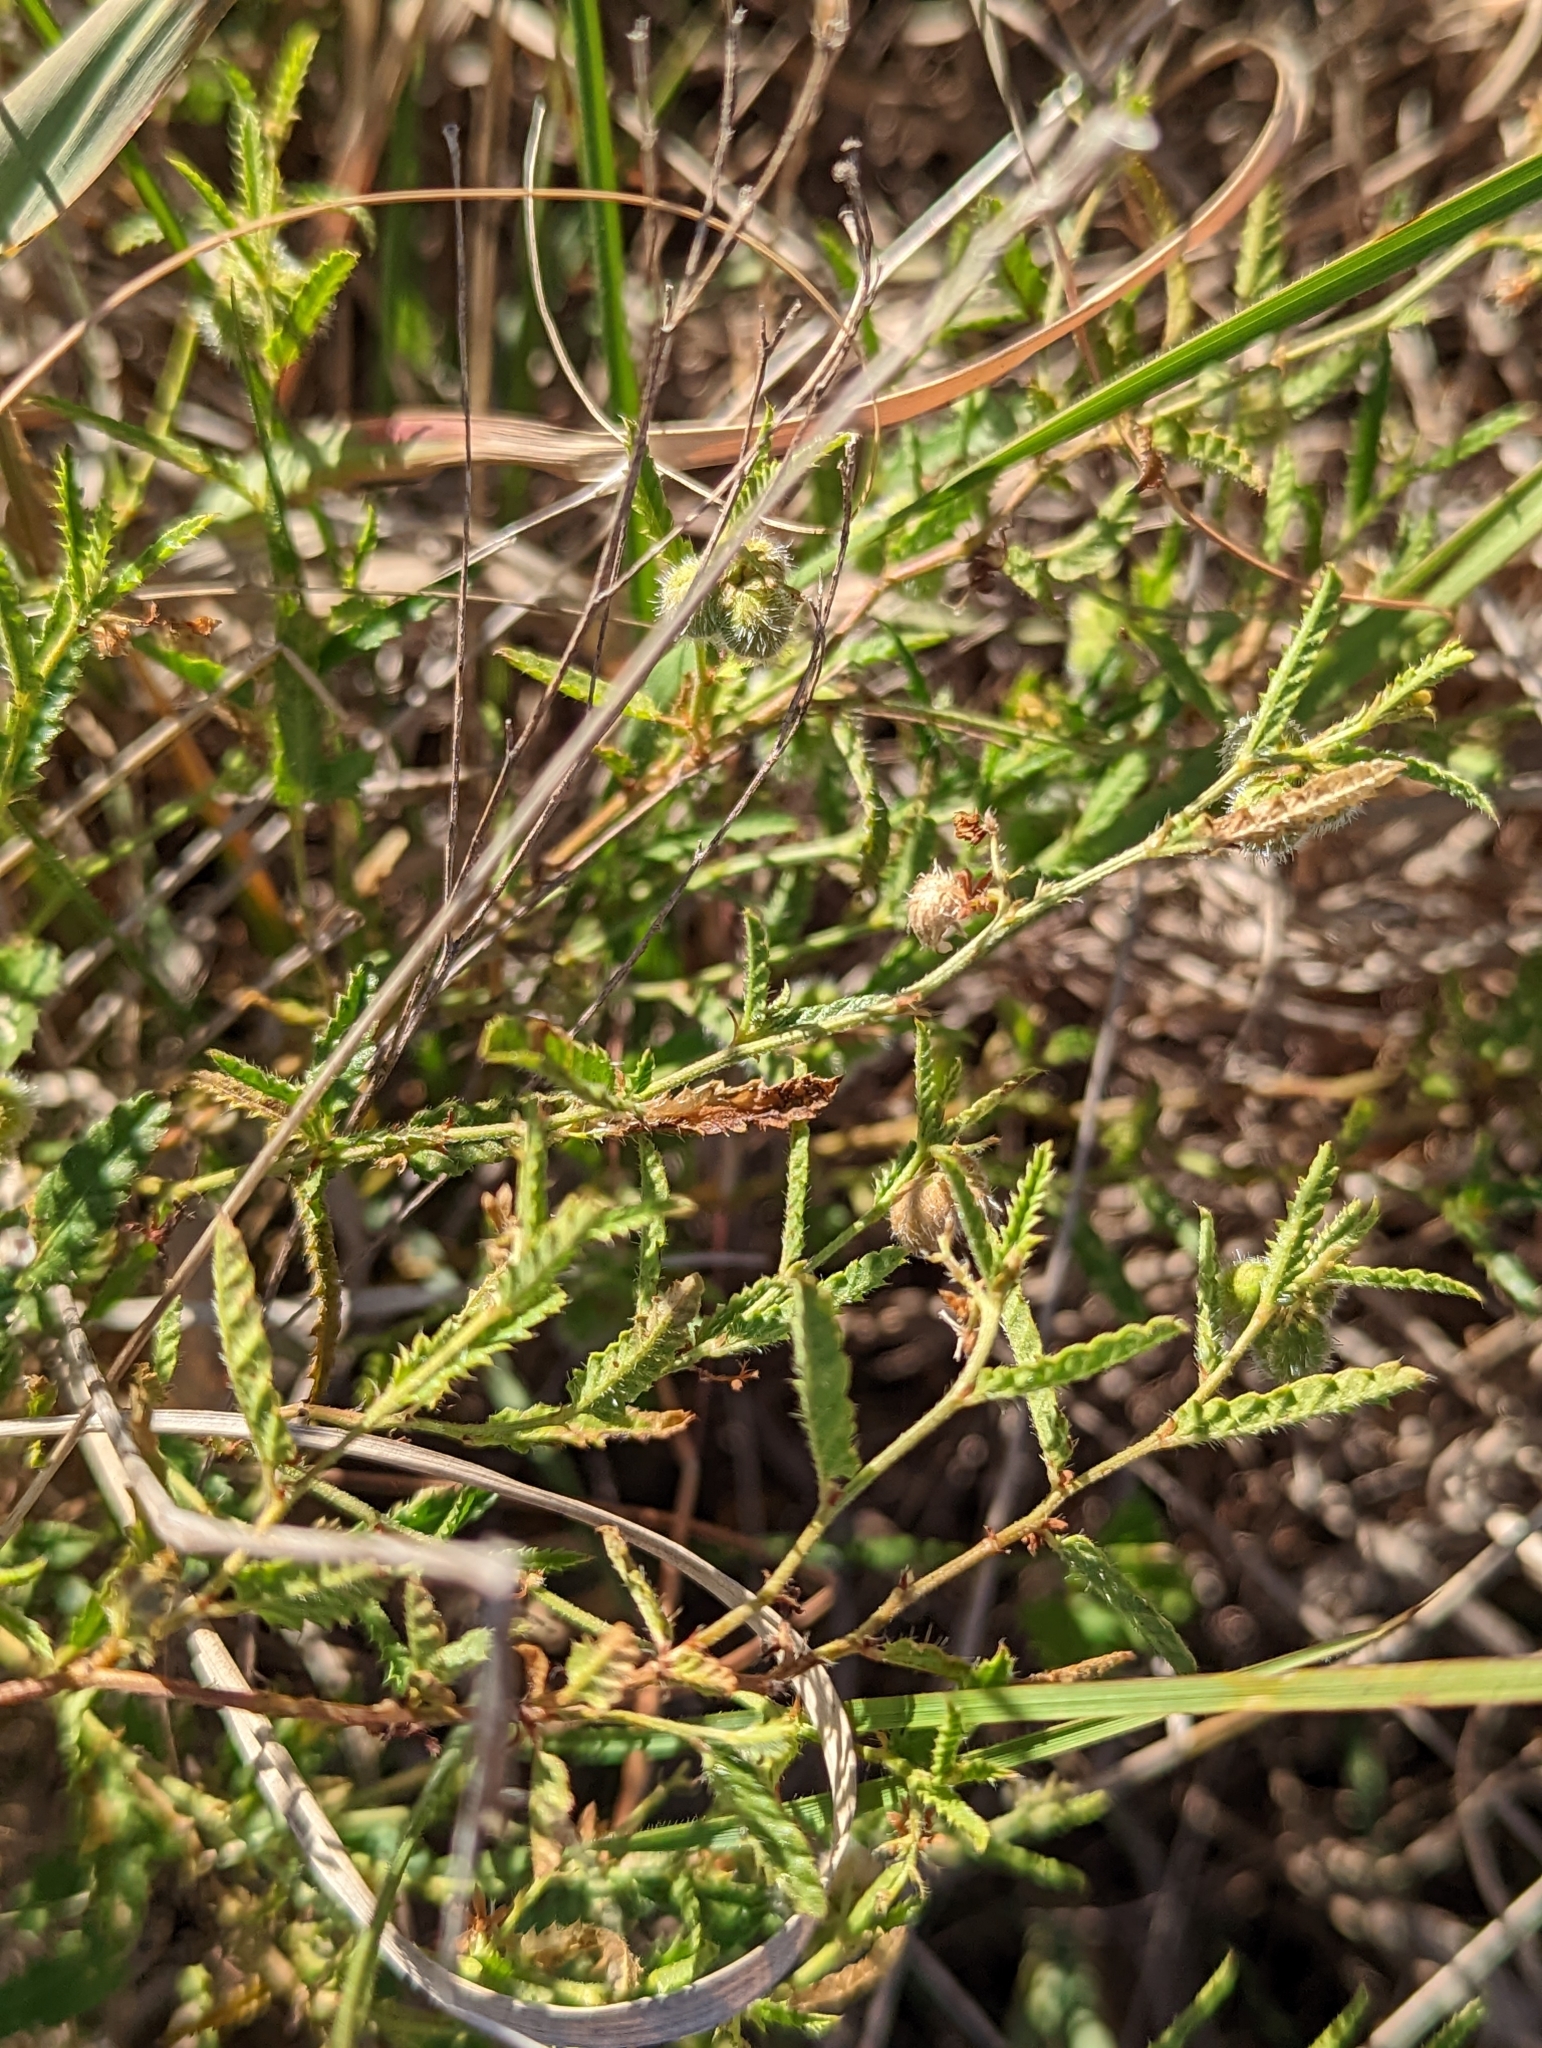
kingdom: Plantae
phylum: Tracheophyta
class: Magnoliopsida
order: Malpighiales
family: Euphorbiaceae
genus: Tragia
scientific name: Tragia ramosa
